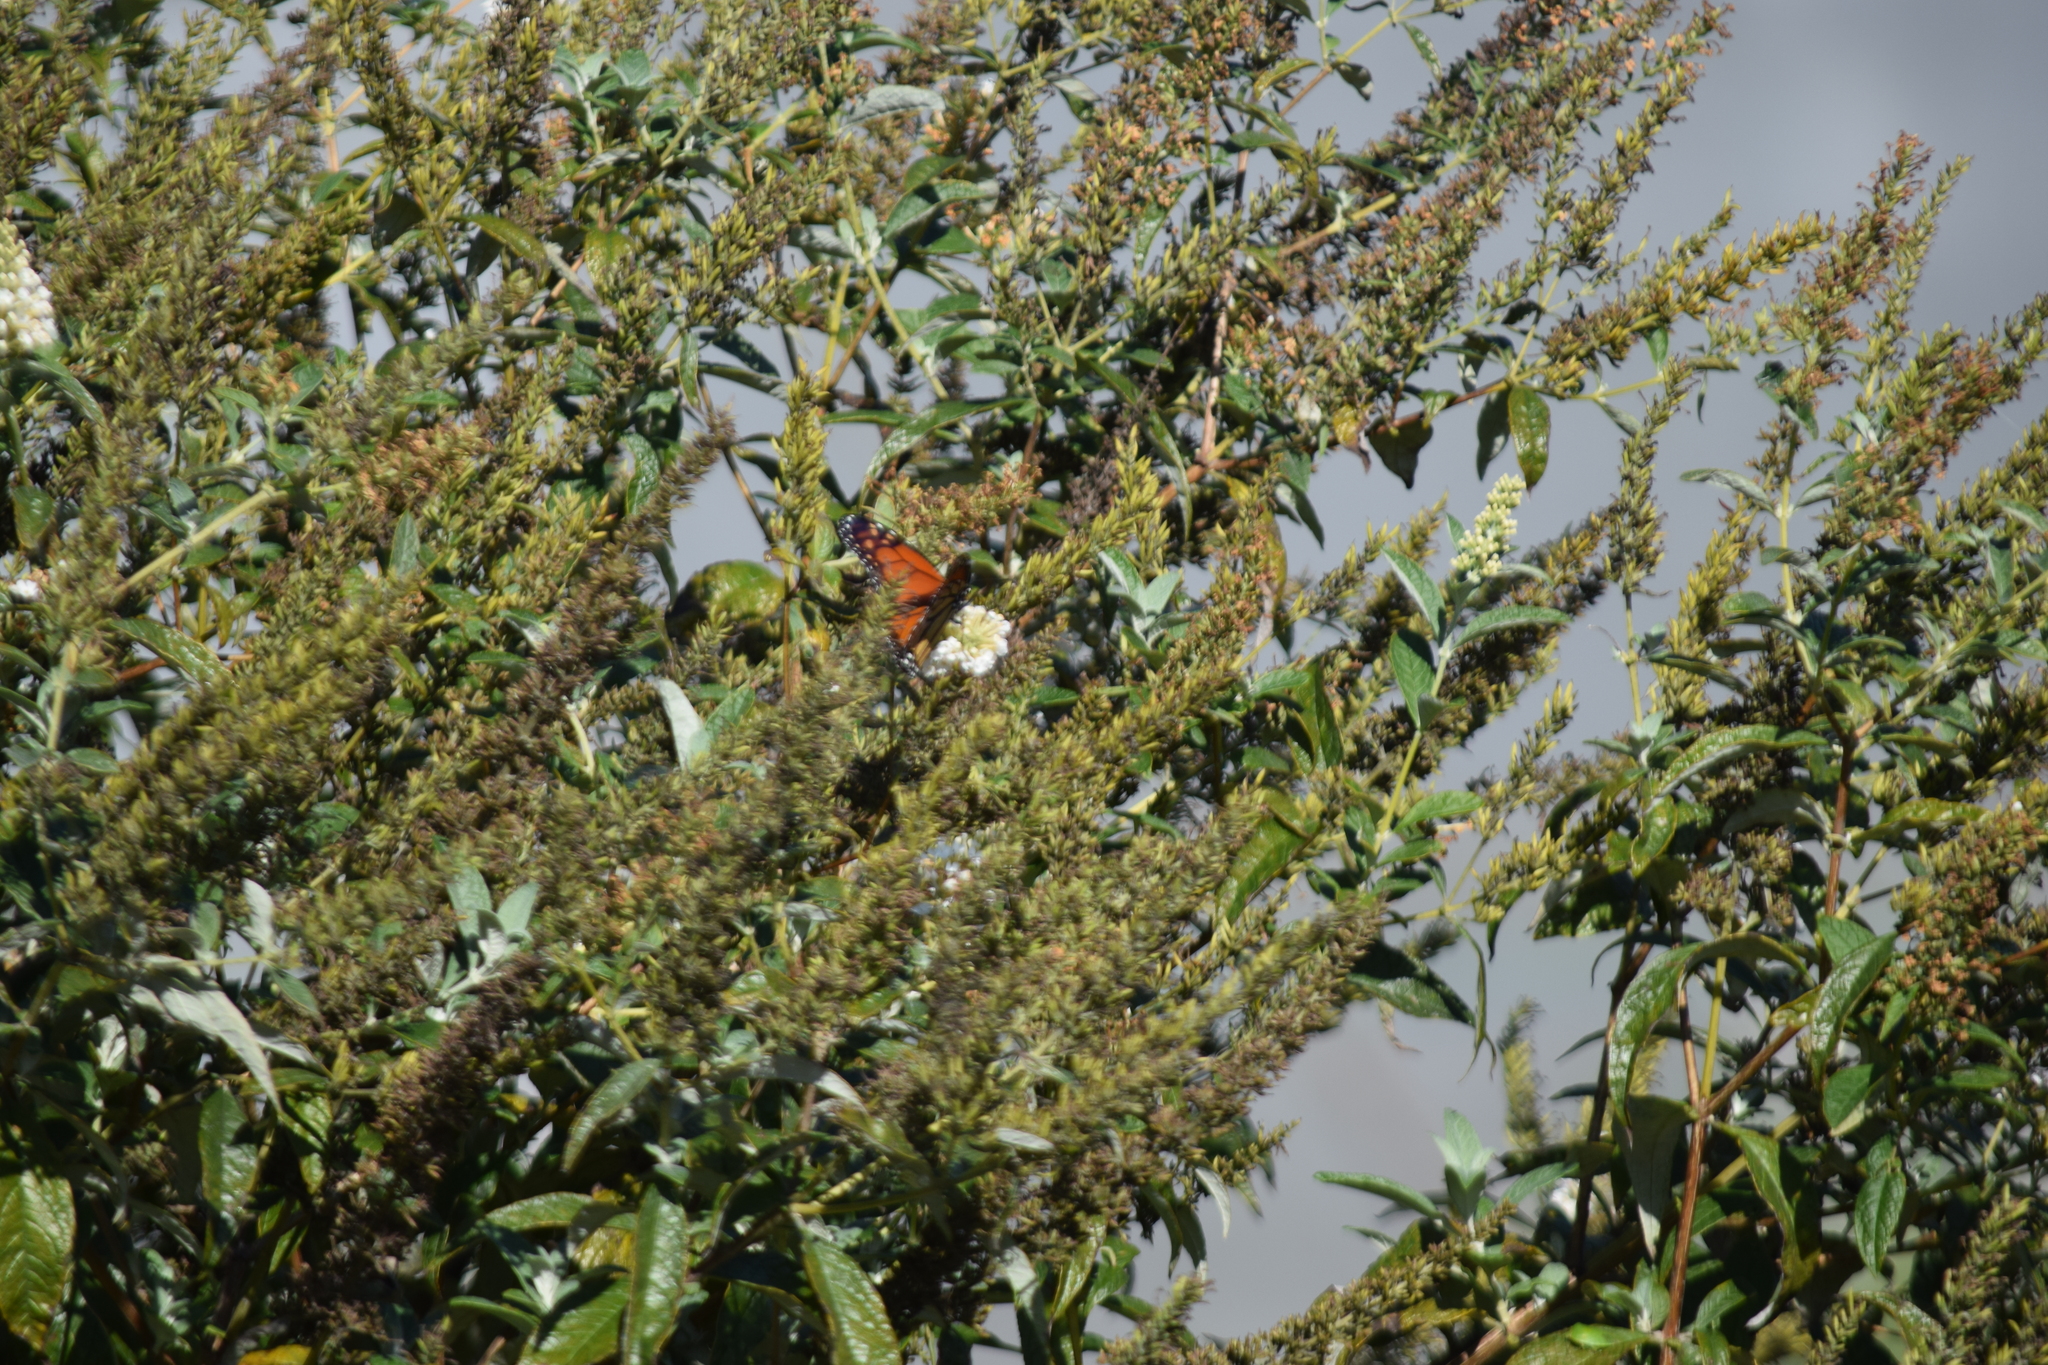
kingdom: Animalia
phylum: Arthropoda
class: Insecta
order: Lepidoptera
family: Nymphalidae
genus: Danaus
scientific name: Danaus plexippus
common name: Monarch
